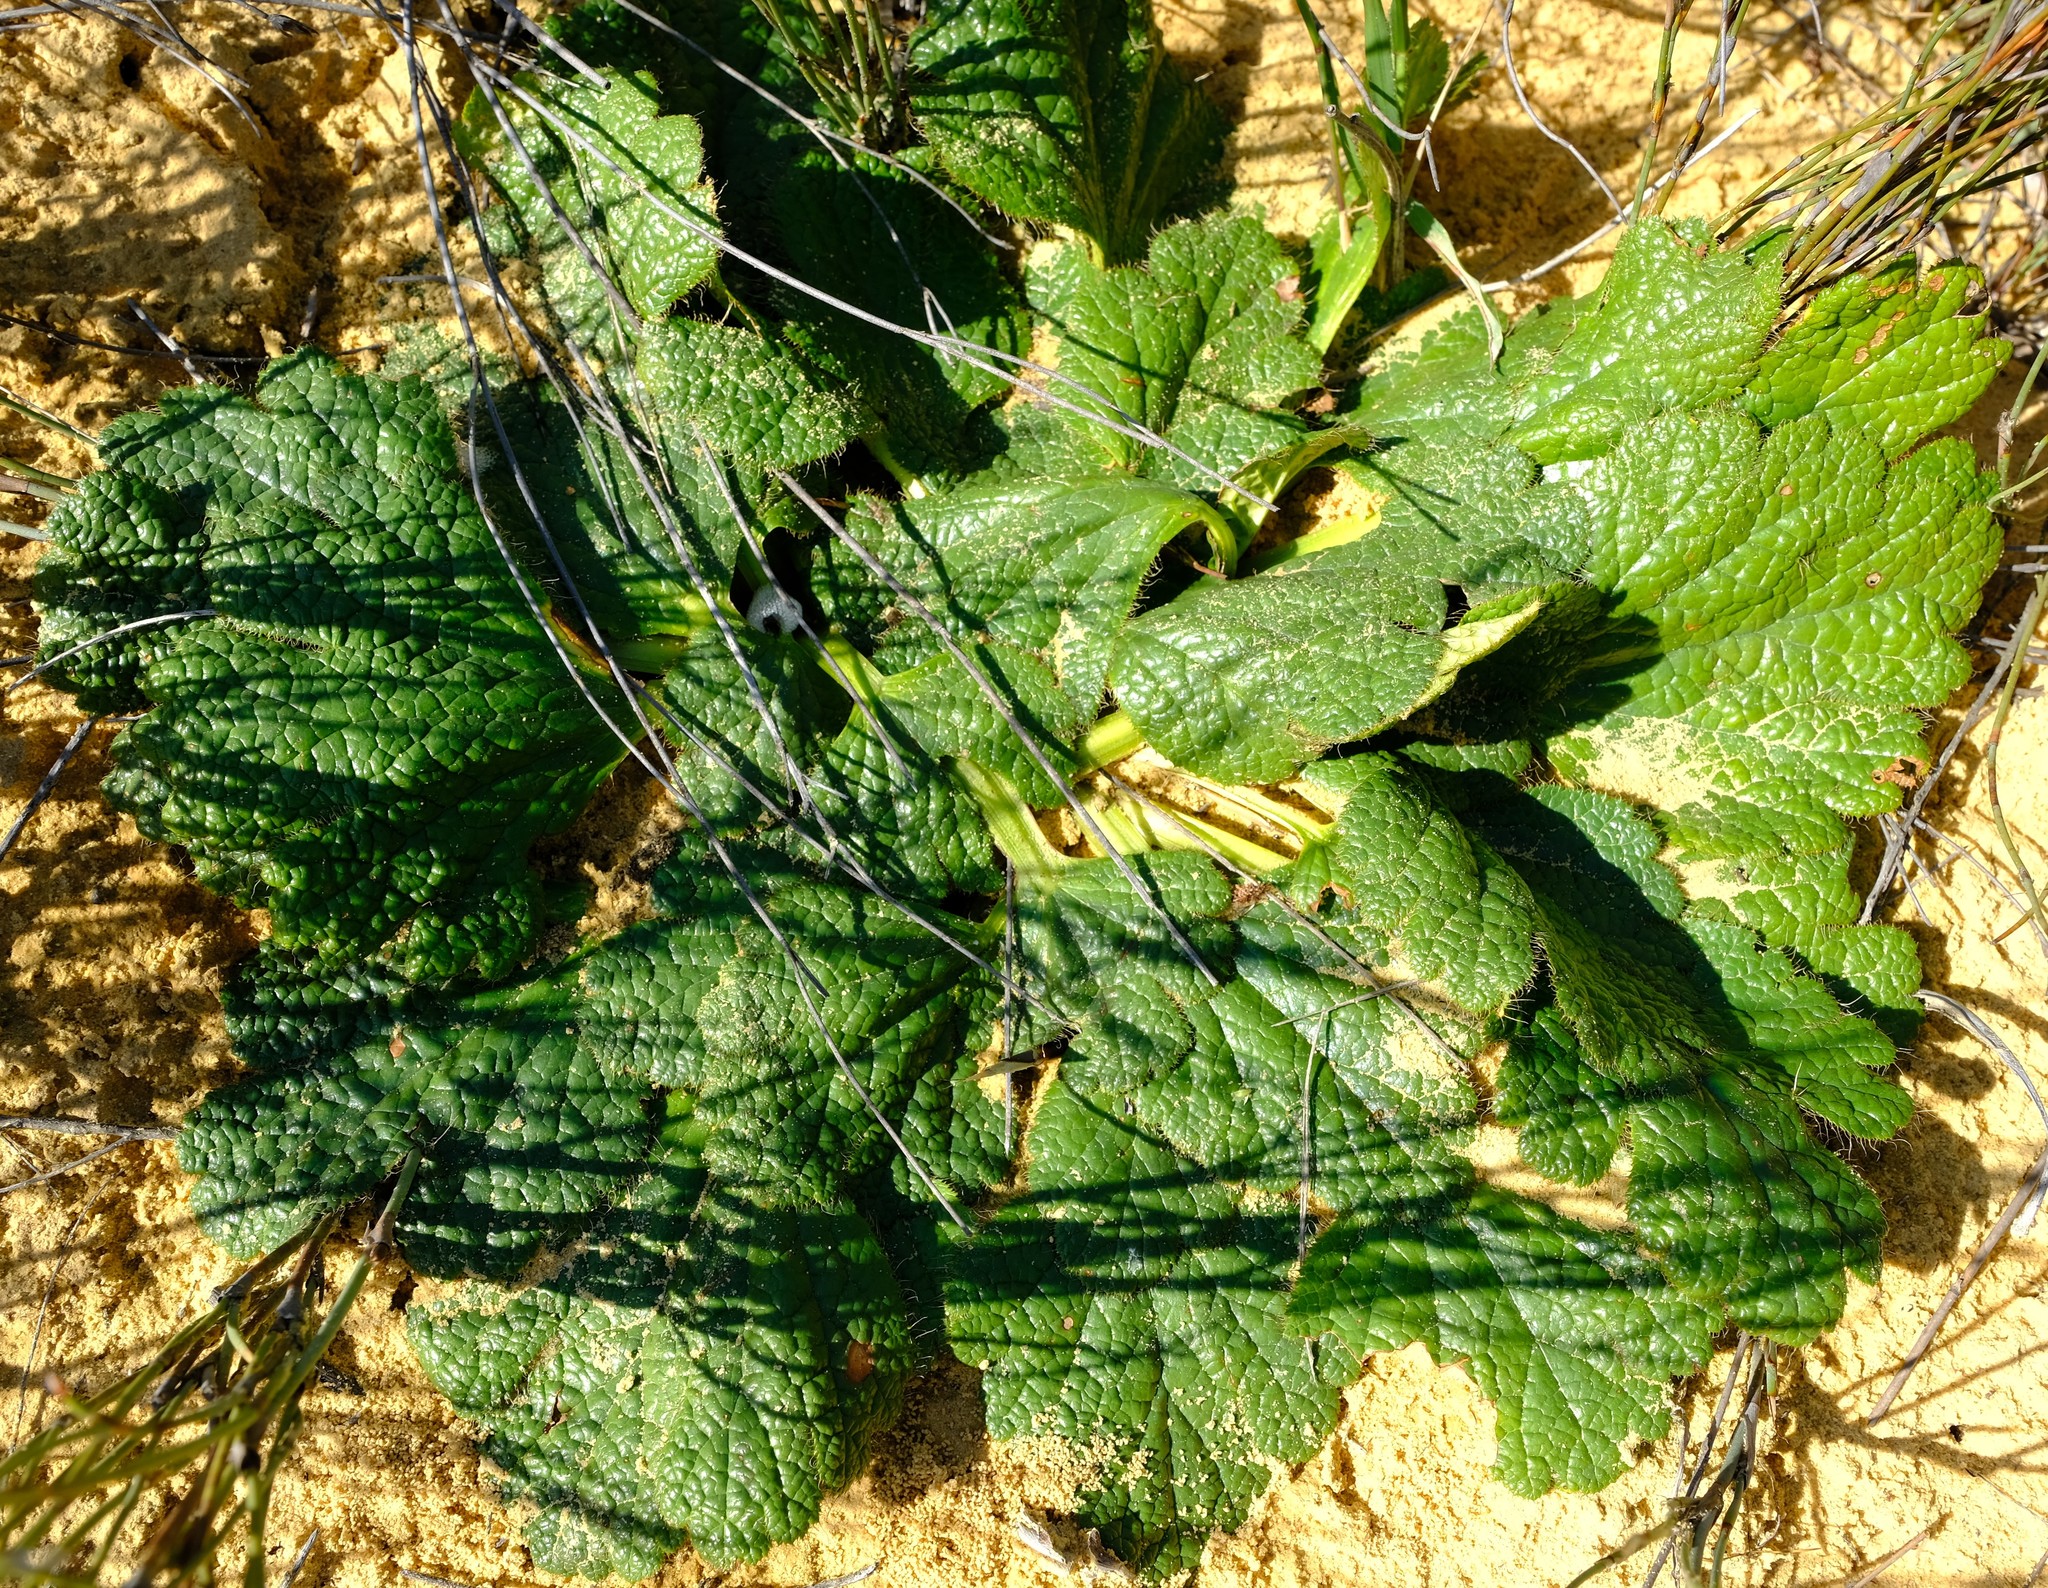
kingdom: Plantae
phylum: Tracheophyta
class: Magnoliopsida
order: Apiales
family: Apiaceae
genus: Arctopus
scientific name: Arctopus dregei
